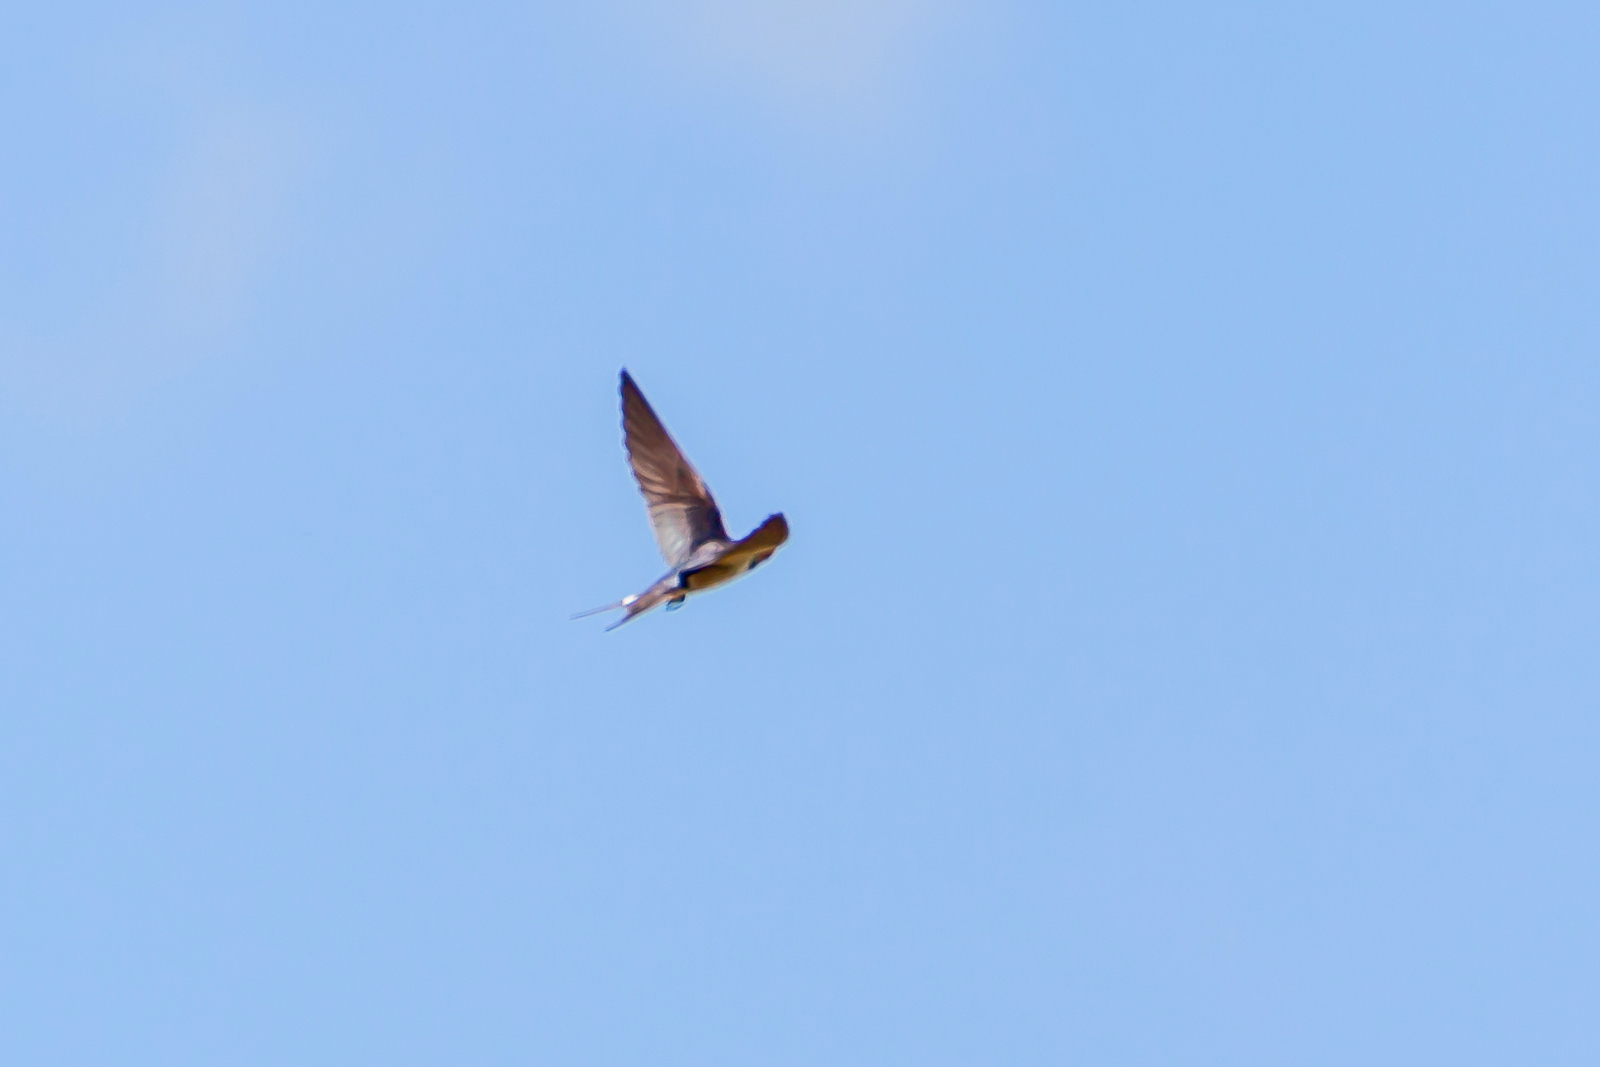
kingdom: Animalia
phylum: Chordata
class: Aves
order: Passeriformes
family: Hirundinidae
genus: Hirundo
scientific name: Hirundo rustica
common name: Barn swallow
